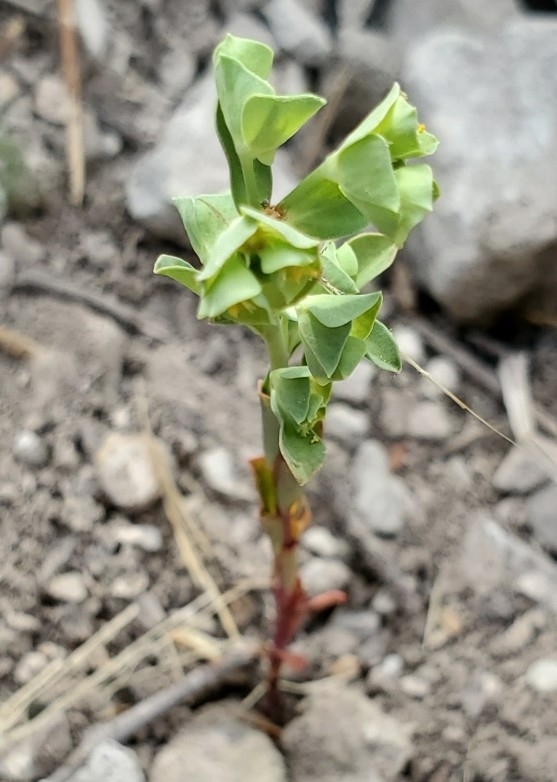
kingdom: Plantae
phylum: Tracheophyta
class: Magnoliopsida
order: Malpighiales
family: Euphorbiaceae
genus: Euphorbia
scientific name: Euphorbia longicruris
